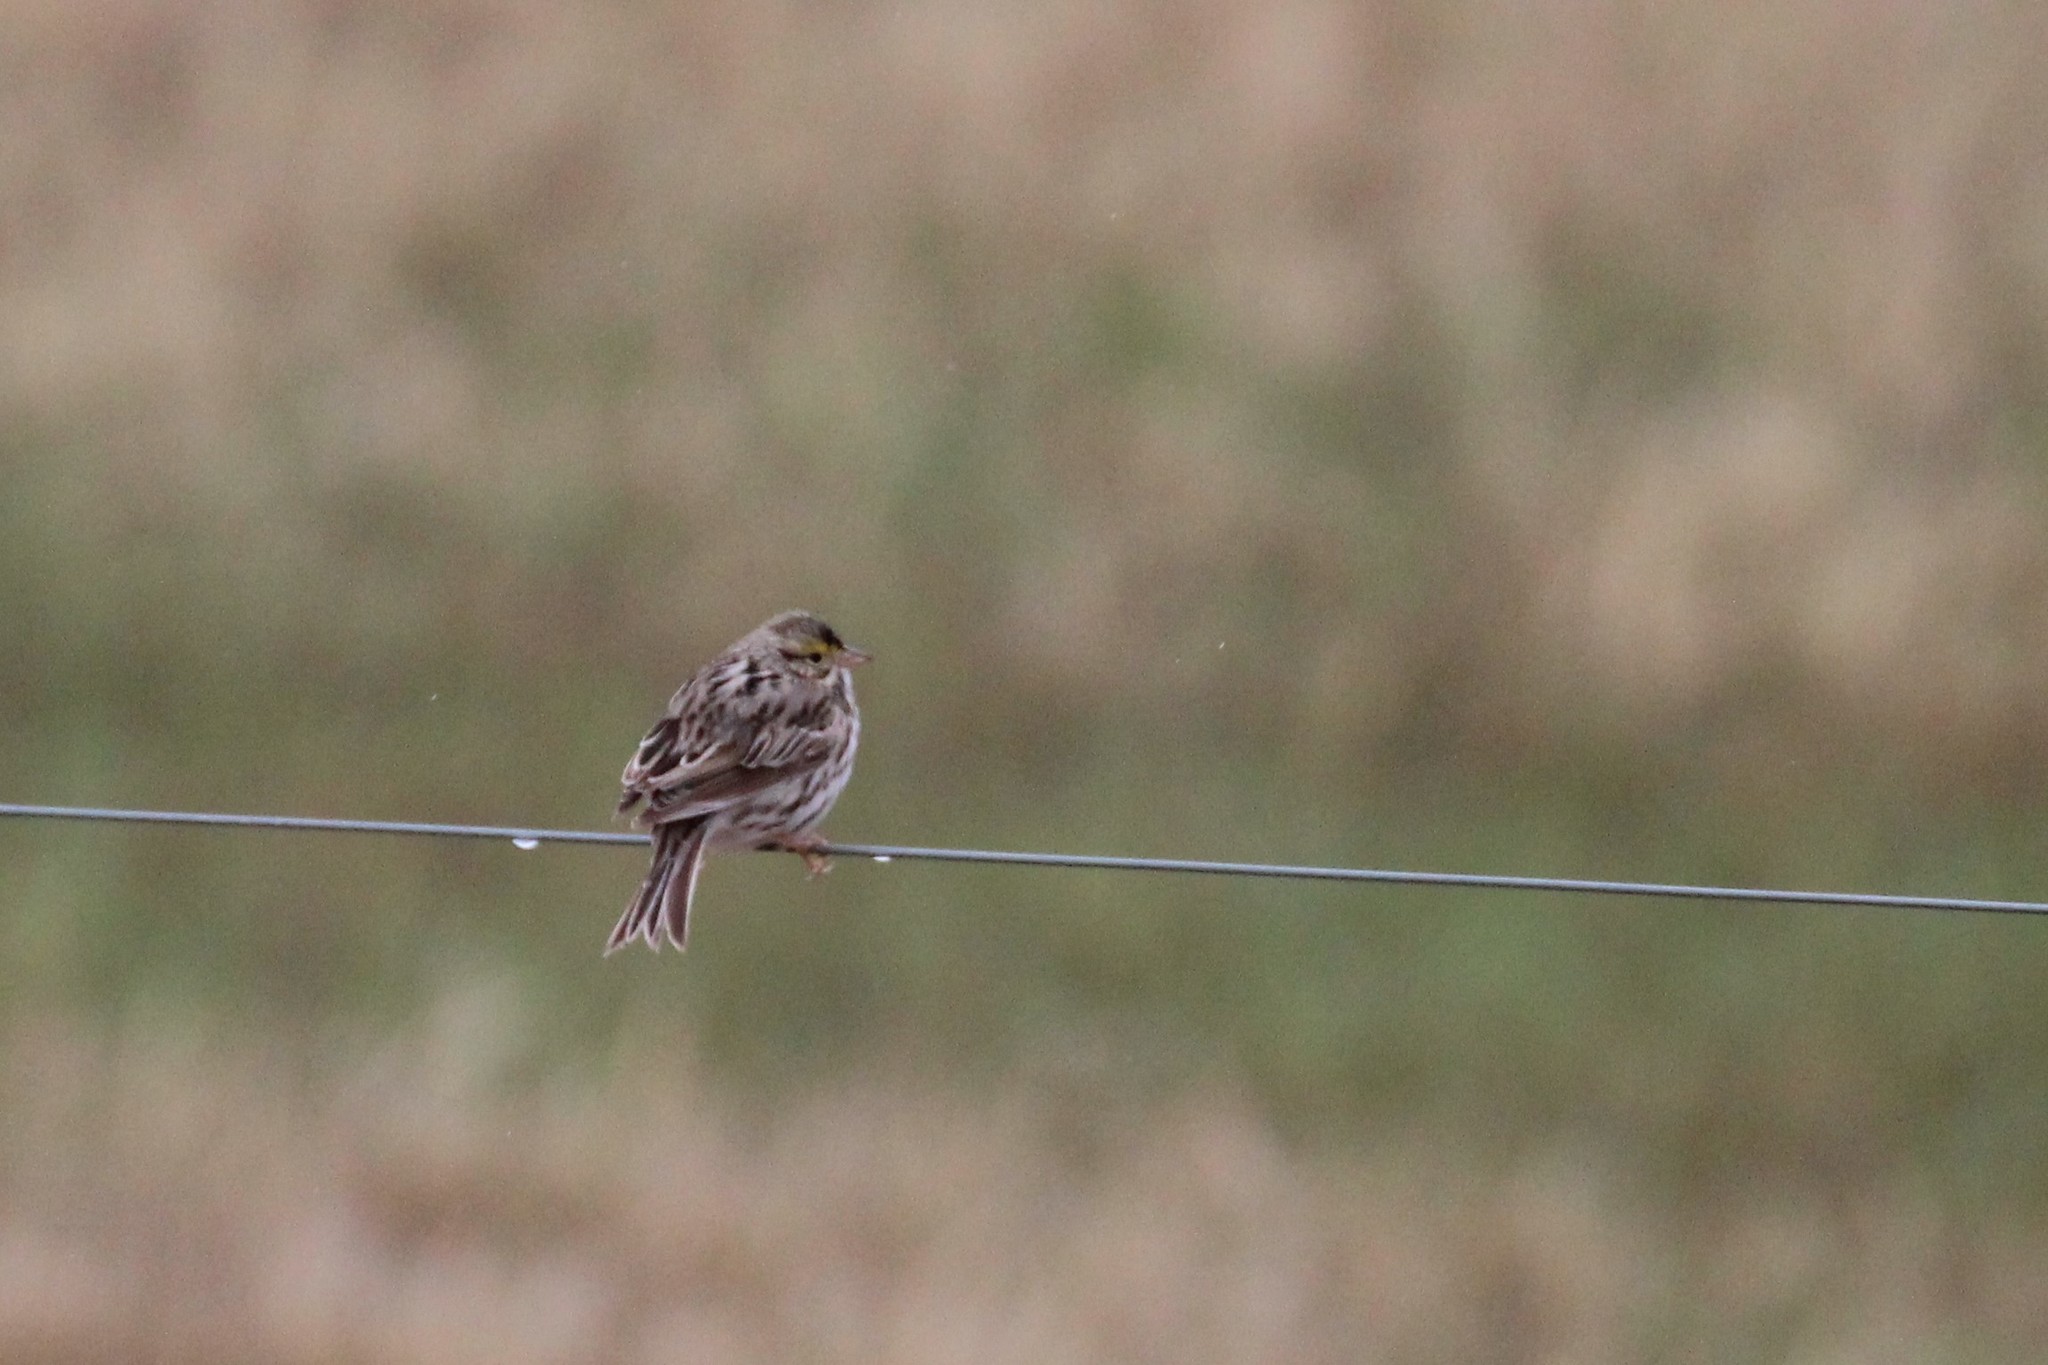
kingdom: Animalia
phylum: Chordata
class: Aves
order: Passeriformes
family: Passerellidae
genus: Passerculus
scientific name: Passerculus sandwichensis
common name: Savannah sparrow
